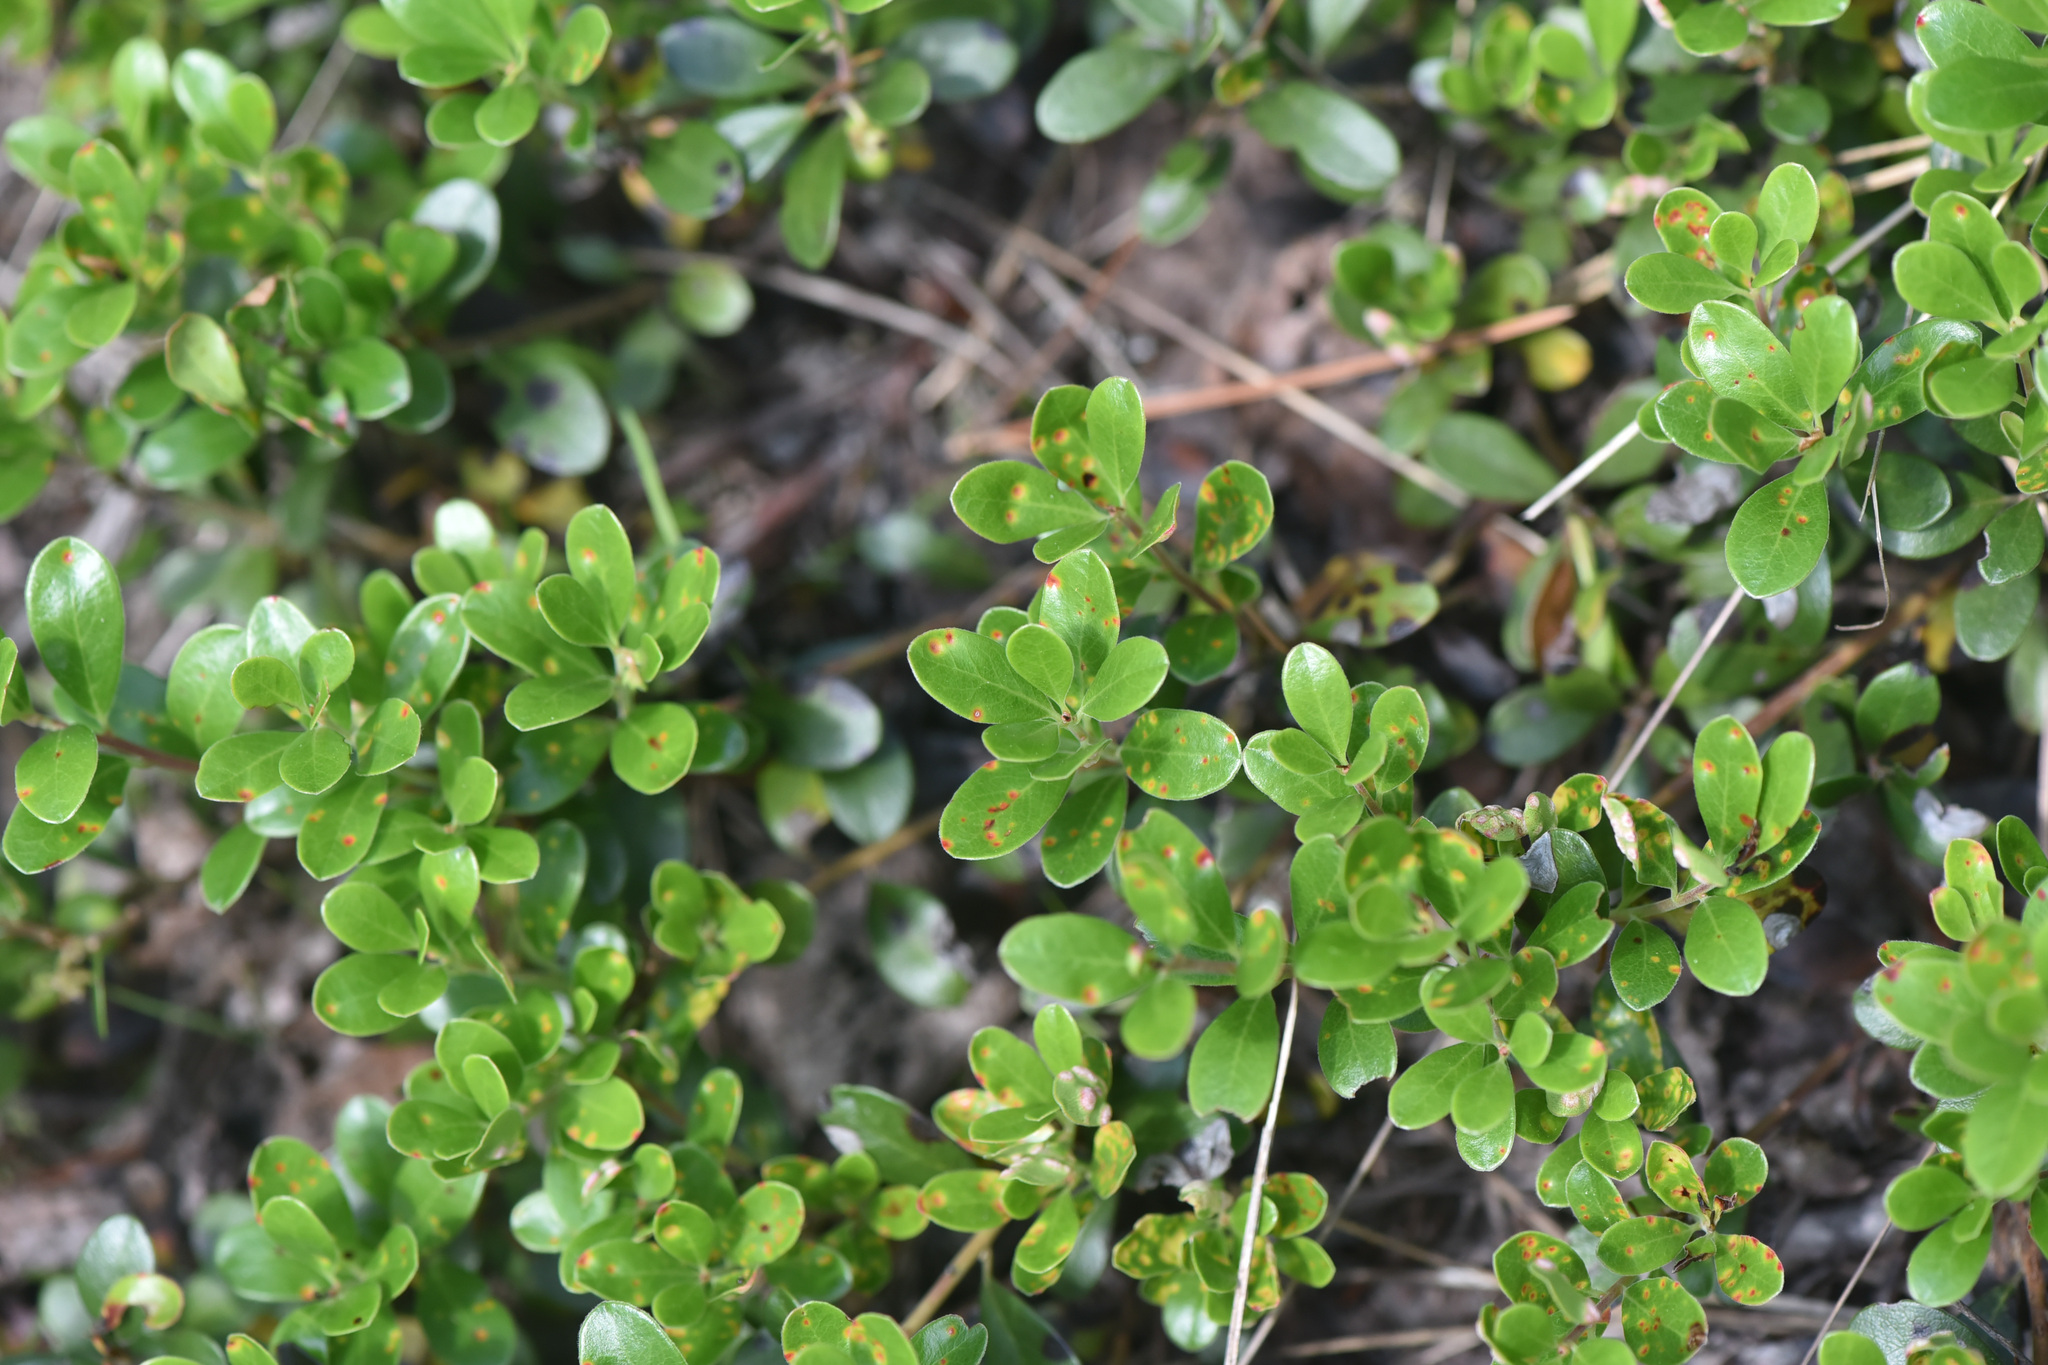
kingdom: Plantae
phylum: Tracheophyta
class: Magnoliopsida
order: Ericales
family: Ericaceae
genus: Arctostaphylos
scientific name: Arctostaphylos uva-ursi
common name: Bearberry
